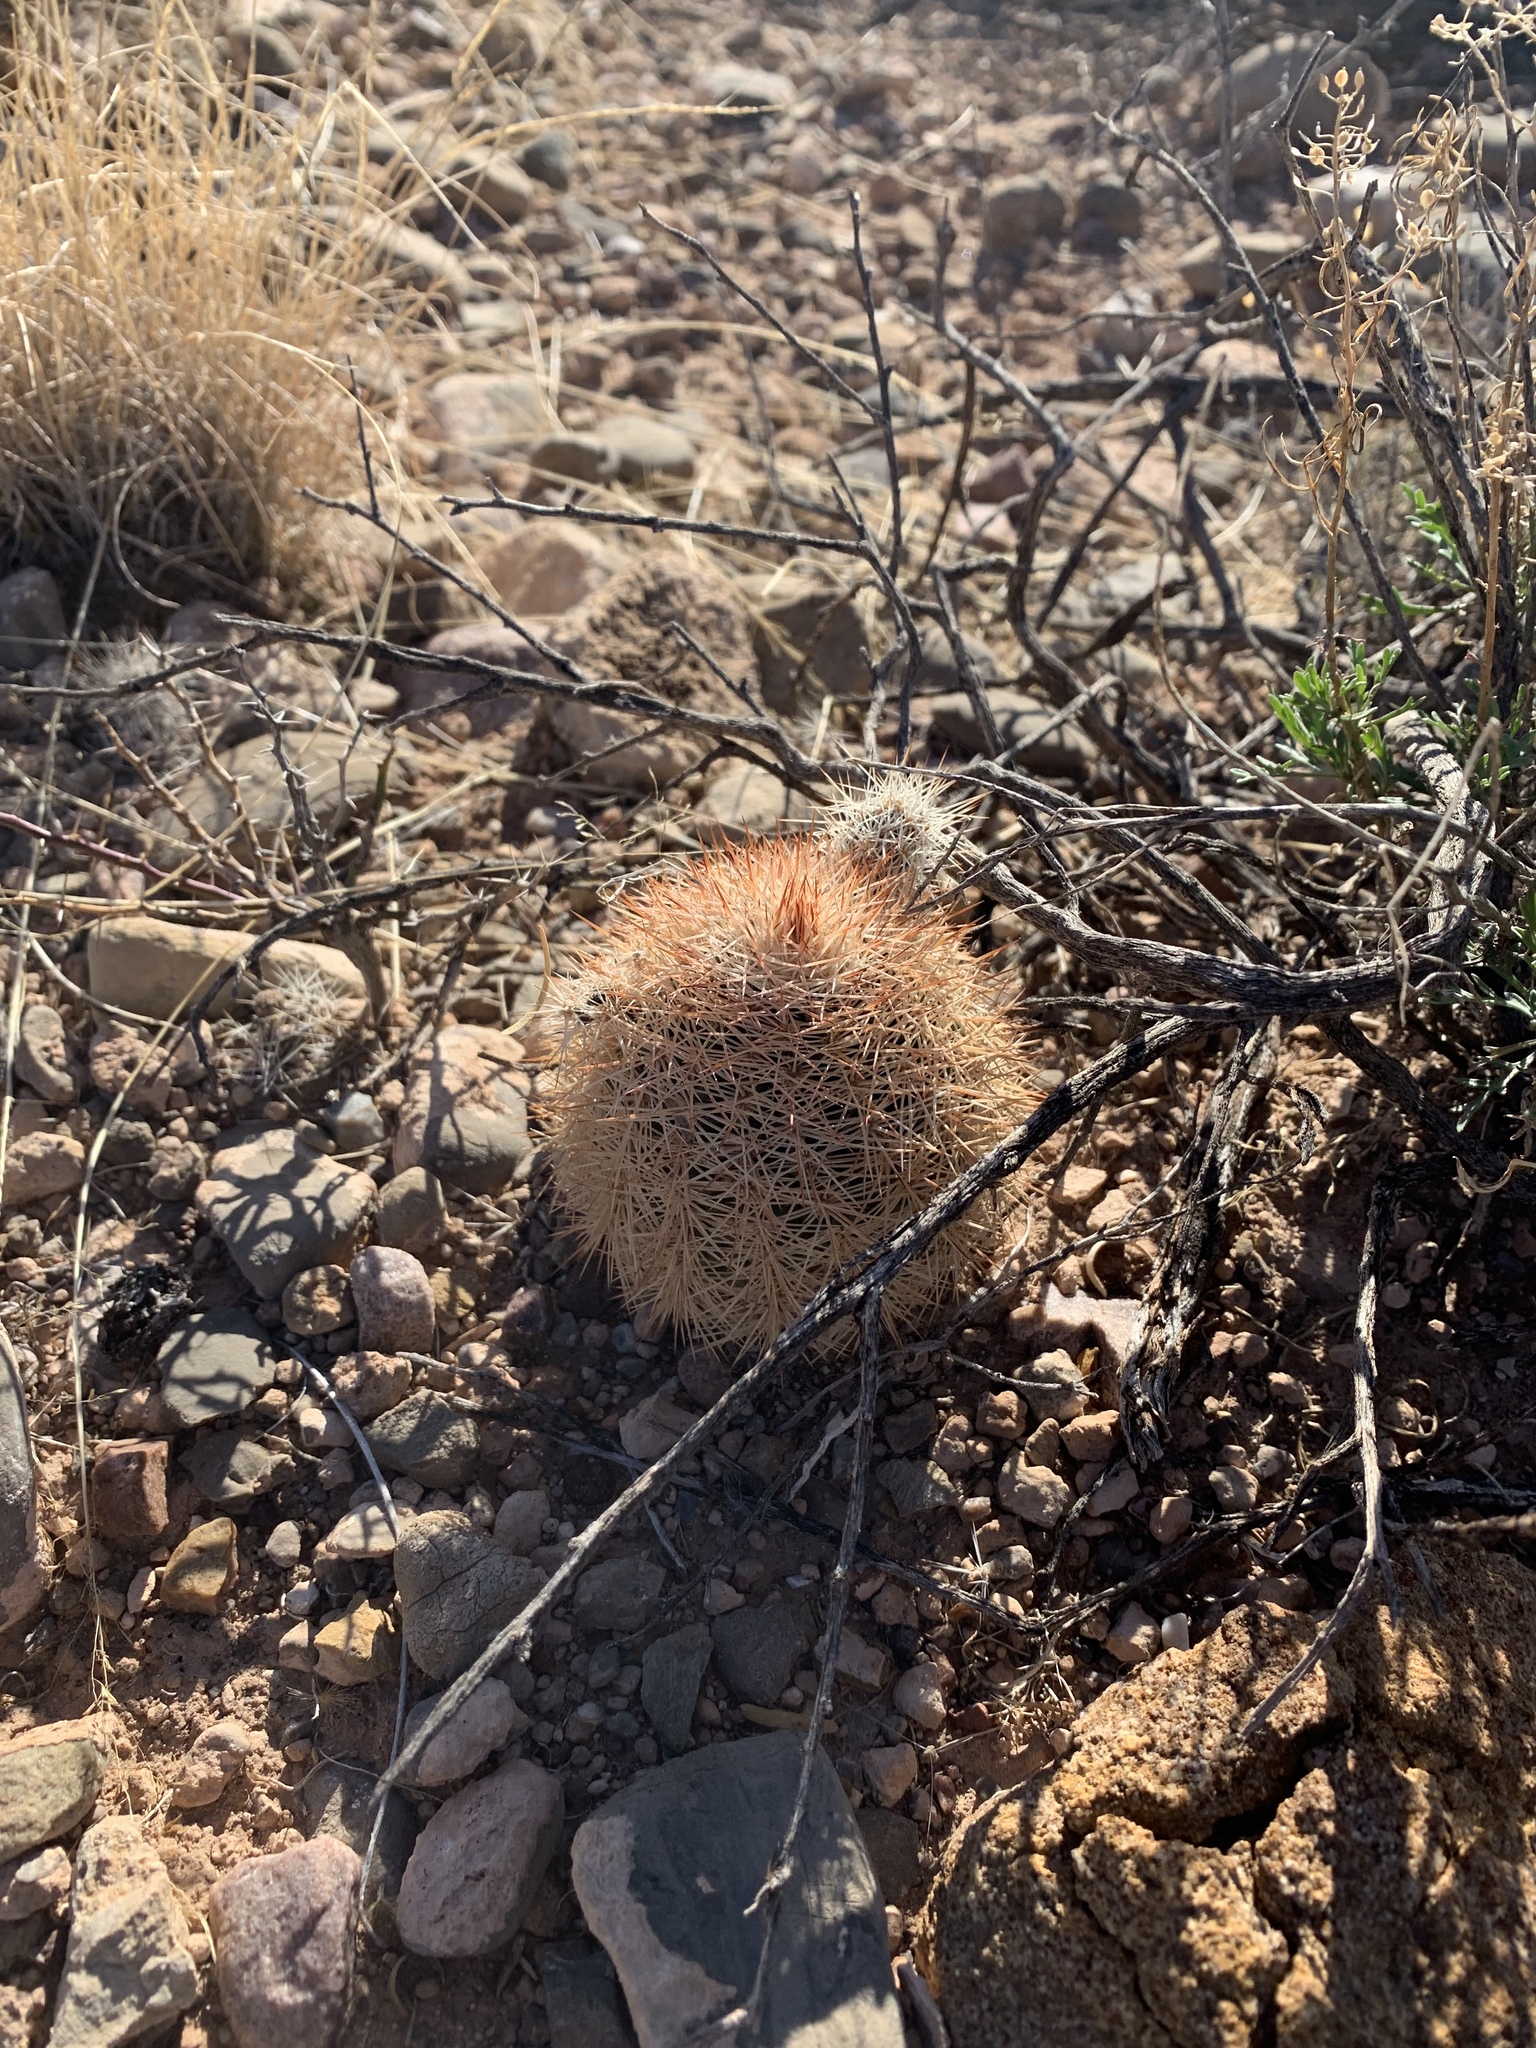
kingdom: Plantae
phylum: Tracheophyta
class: Magnoliopsida
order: Caryophyllales
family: Cactaceae
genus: Echinocereus
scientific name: Echinocereus dasyacanthus
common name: Spiny hedgehog cactus
